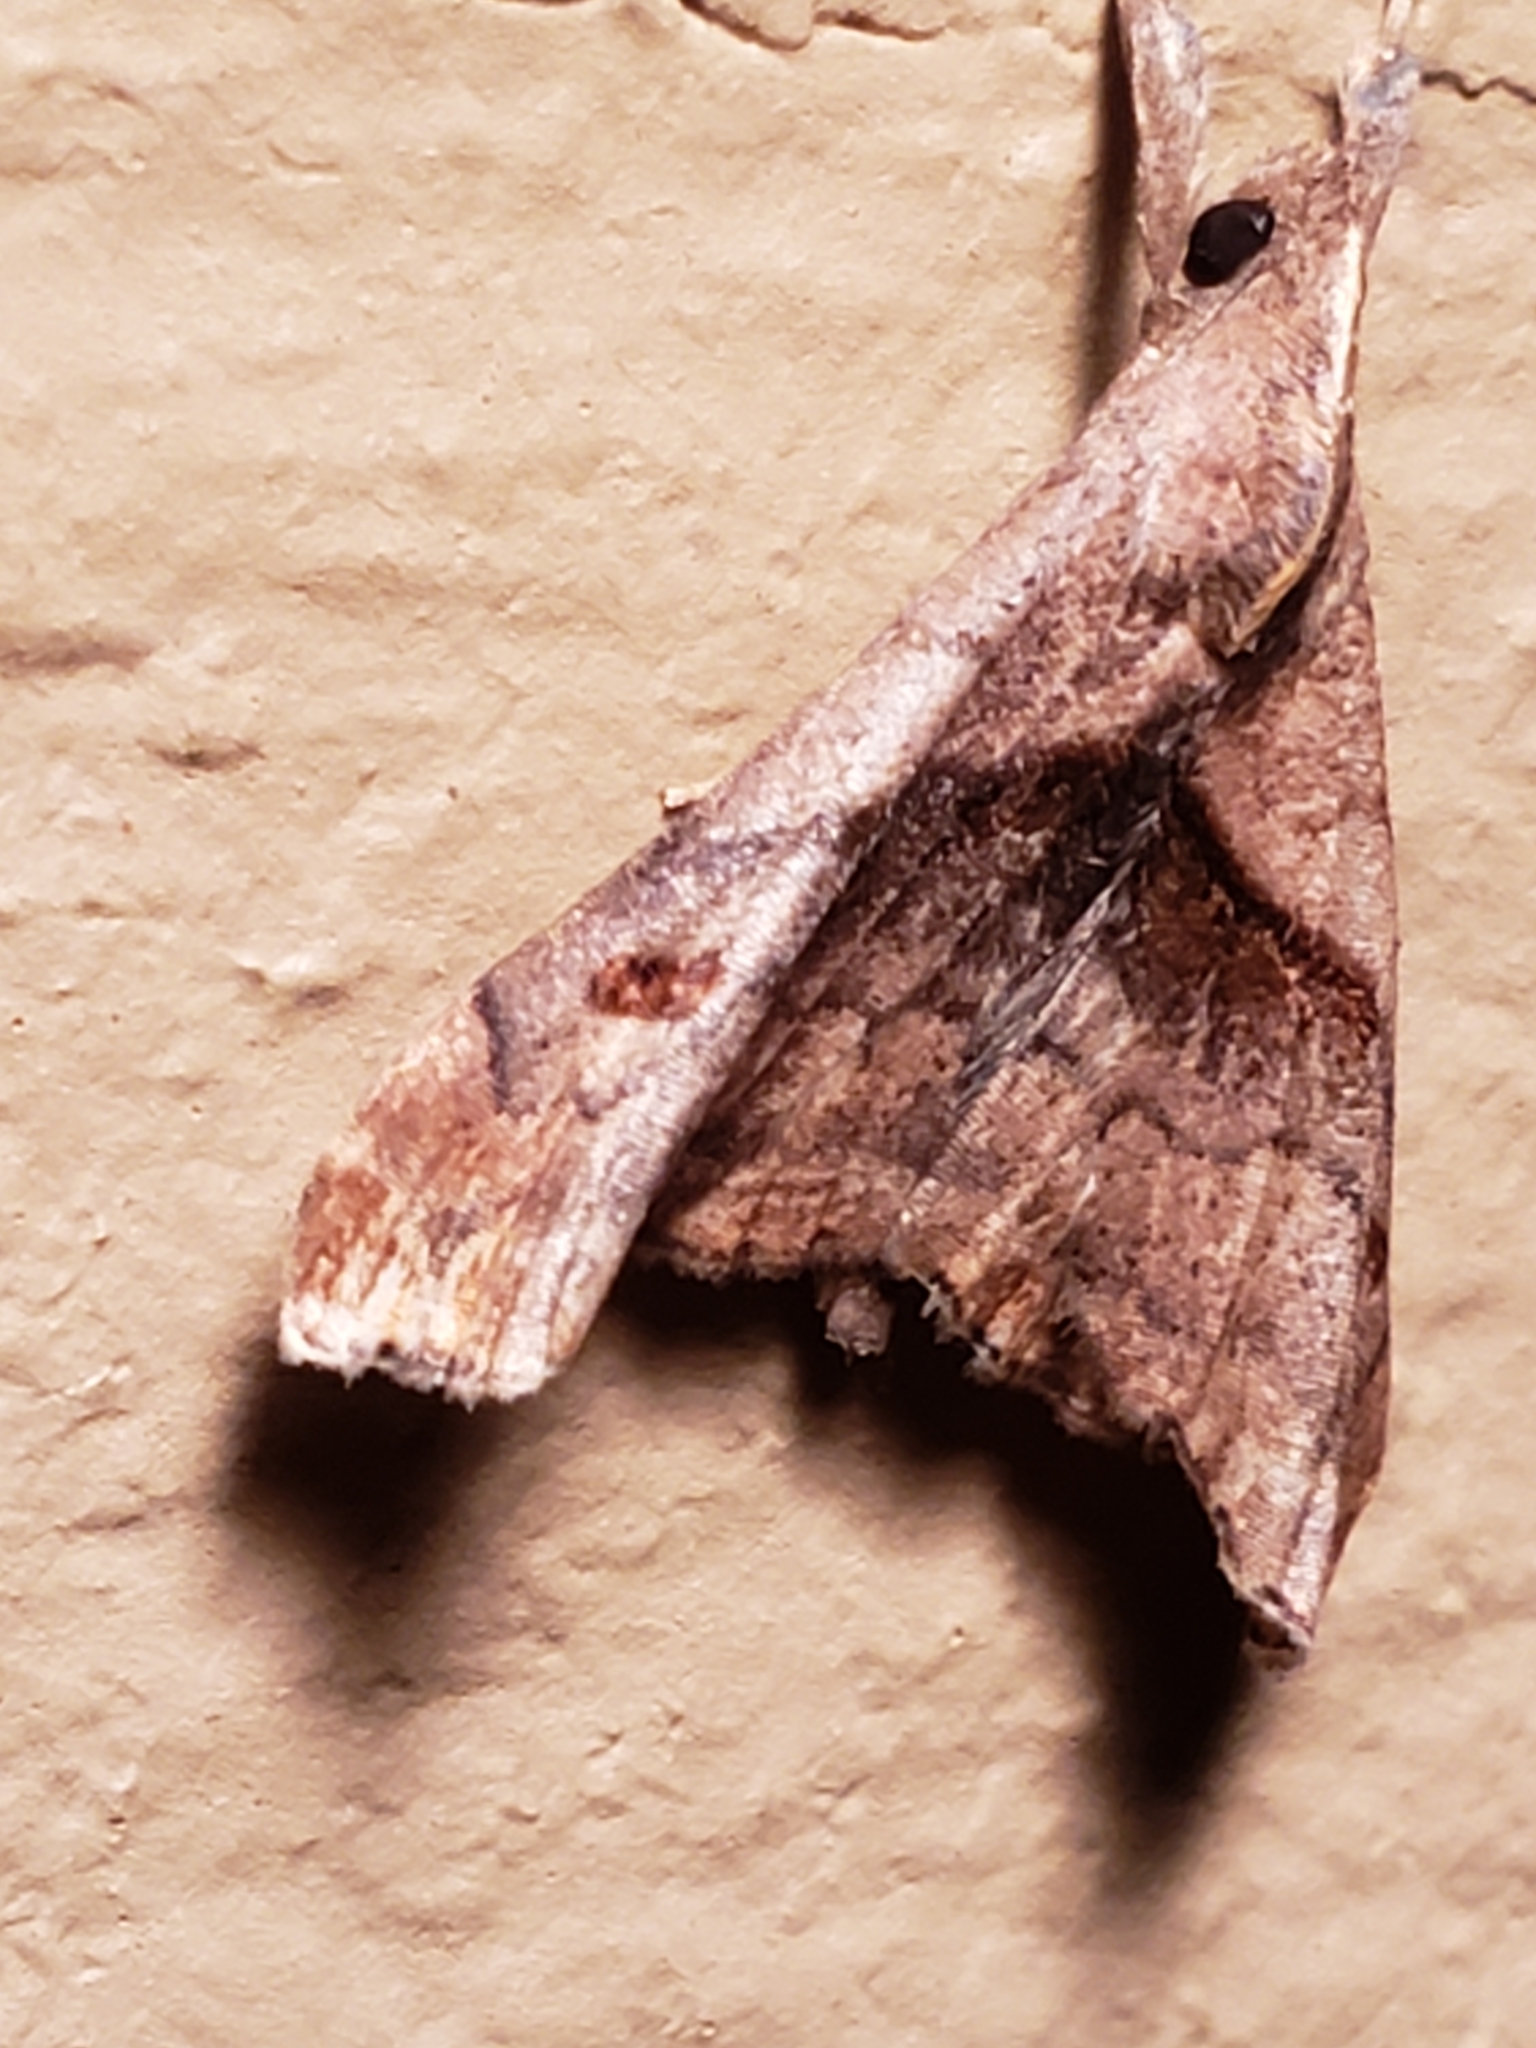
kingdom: Animalia
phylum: Arthropoda
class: Insecta
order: Lepidoptera
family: Erebidae
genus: Palthis
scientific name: Palthis angulalis
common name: Dark-spotted palthis moth
